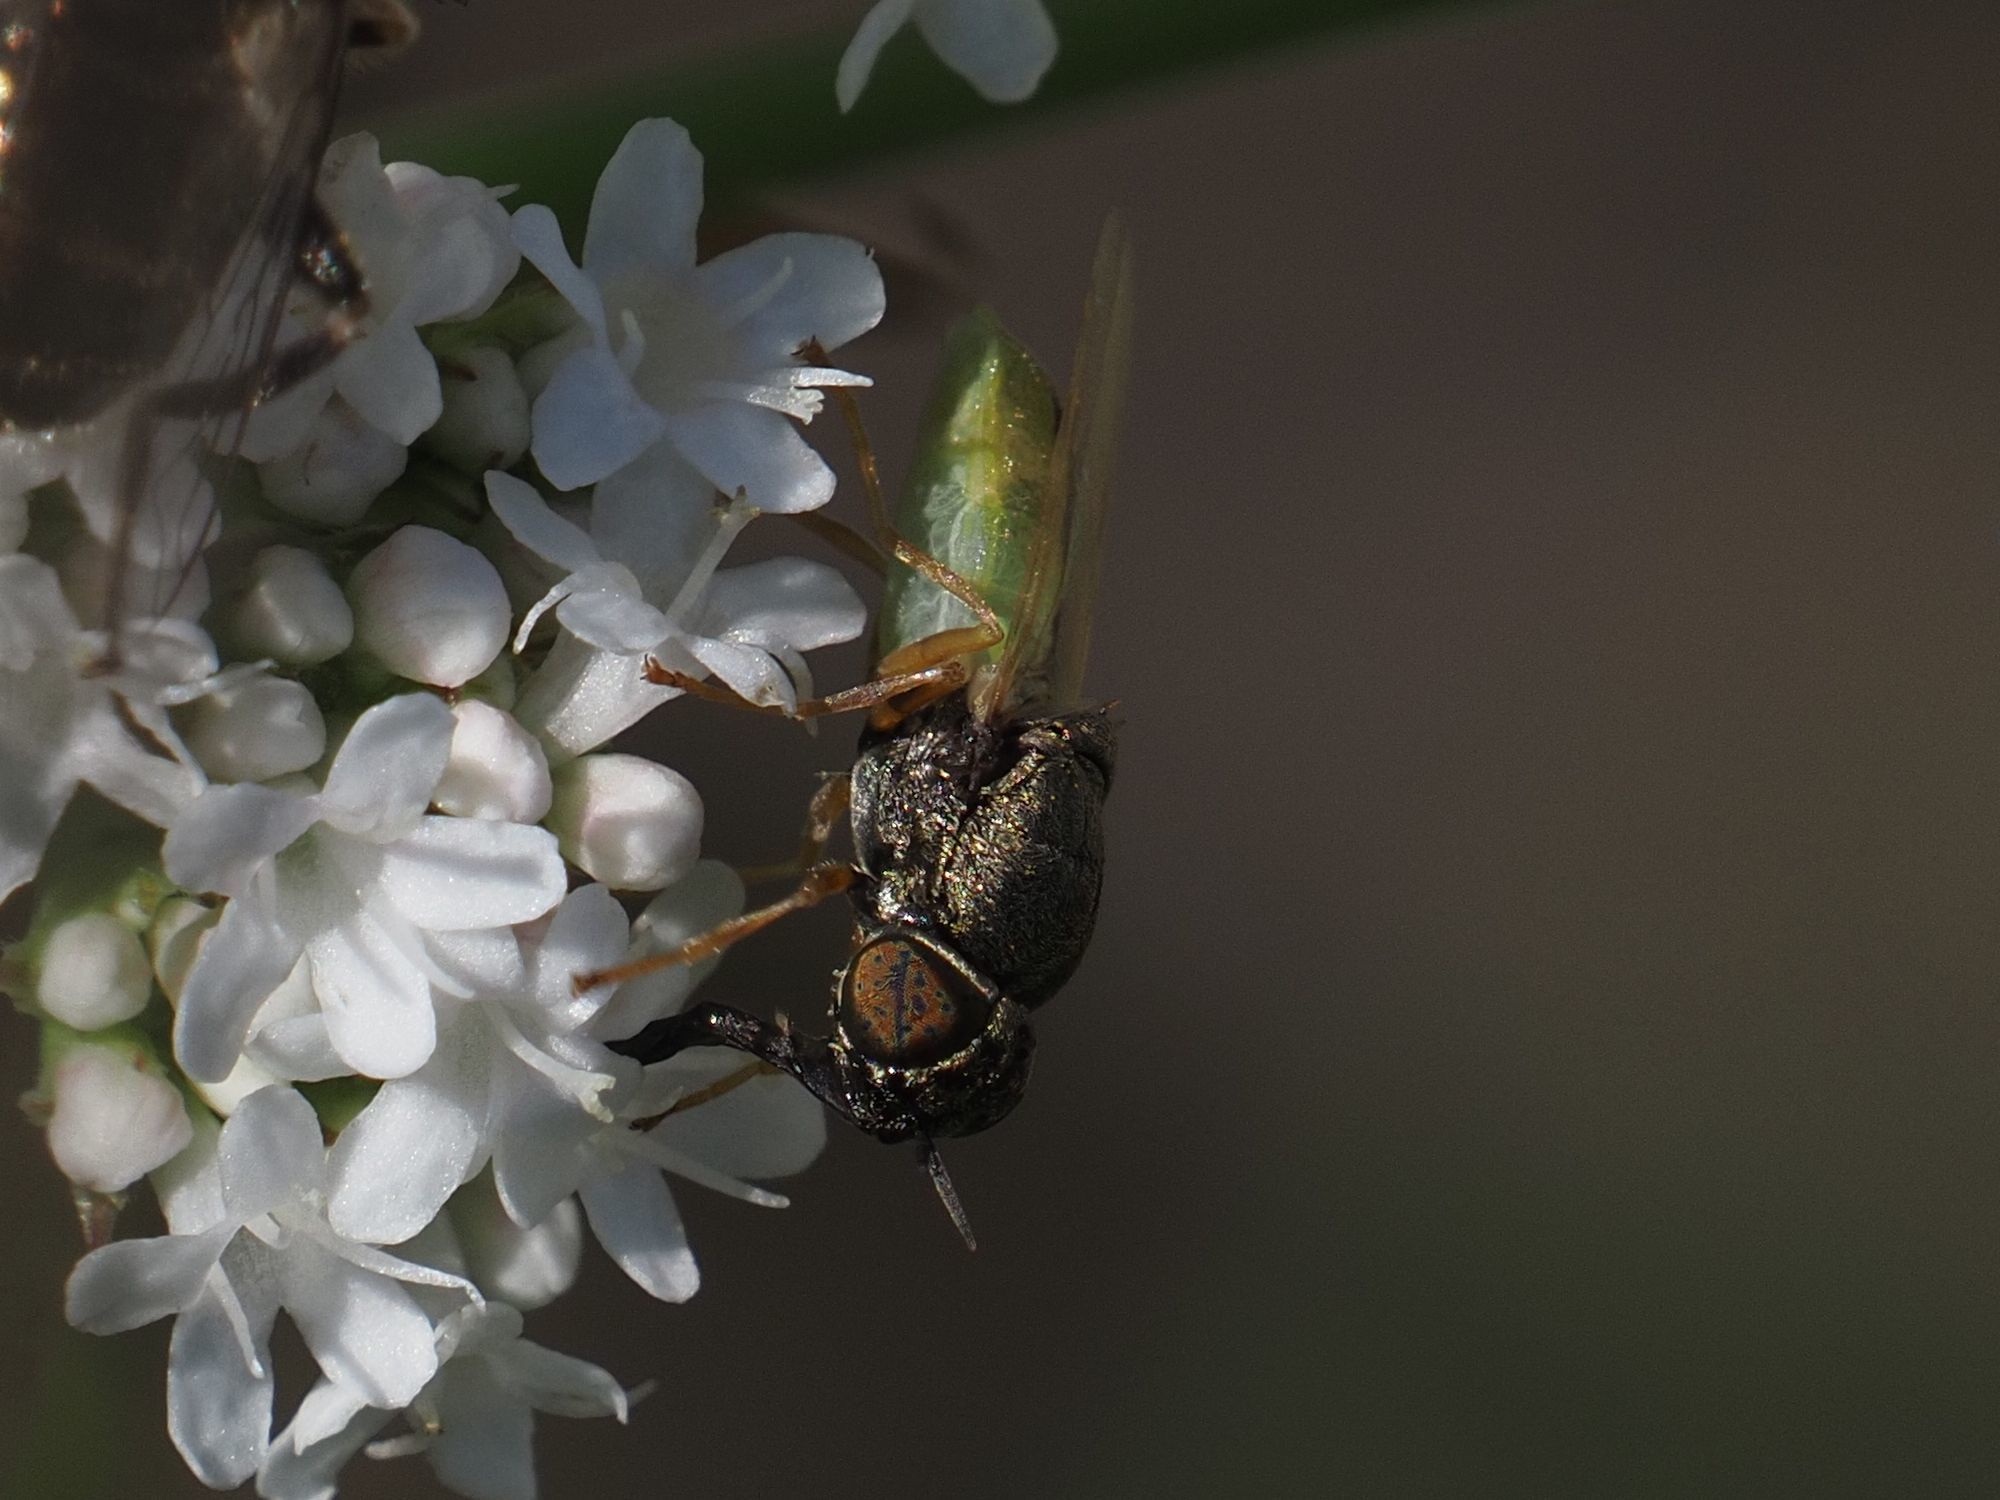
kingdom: Animalia
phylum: Arthropoda
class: Insecta
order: Diptera
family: Stratiomyidae
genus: Oplodontha
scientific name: Oplodontha viridula
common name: Common green colonel
